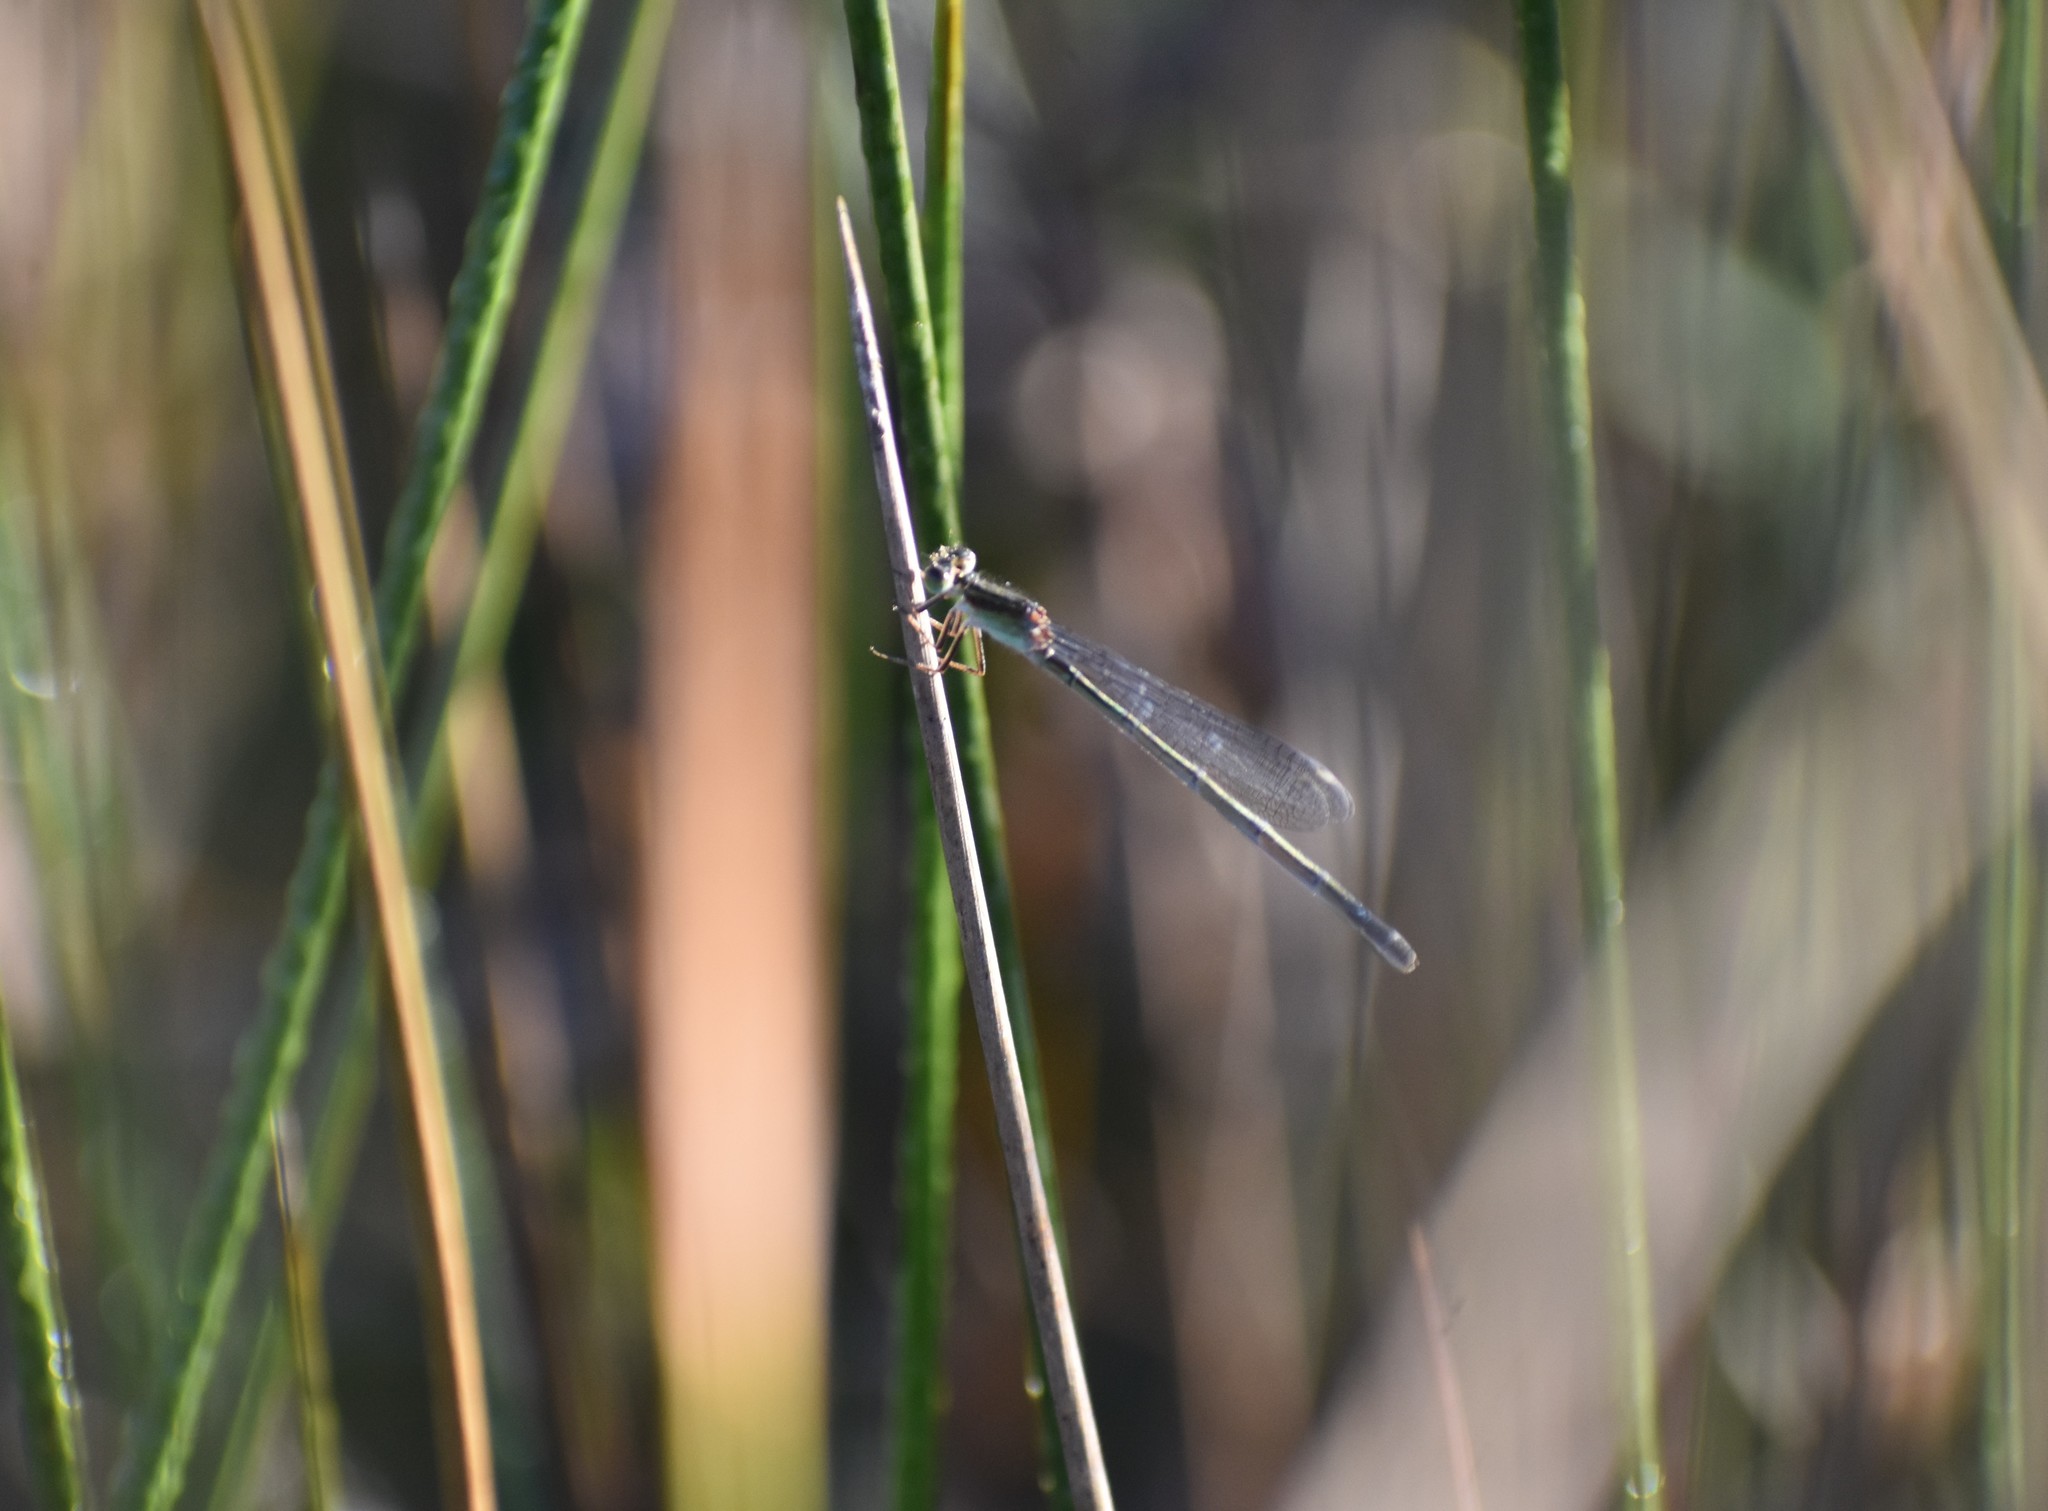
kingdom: Animalia
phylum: Arthropoda
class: Insecta
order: Odonata
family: Coenagrionidae
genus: Ischnura
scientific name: Ischnura senegalensis
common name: Tropical bluetail
